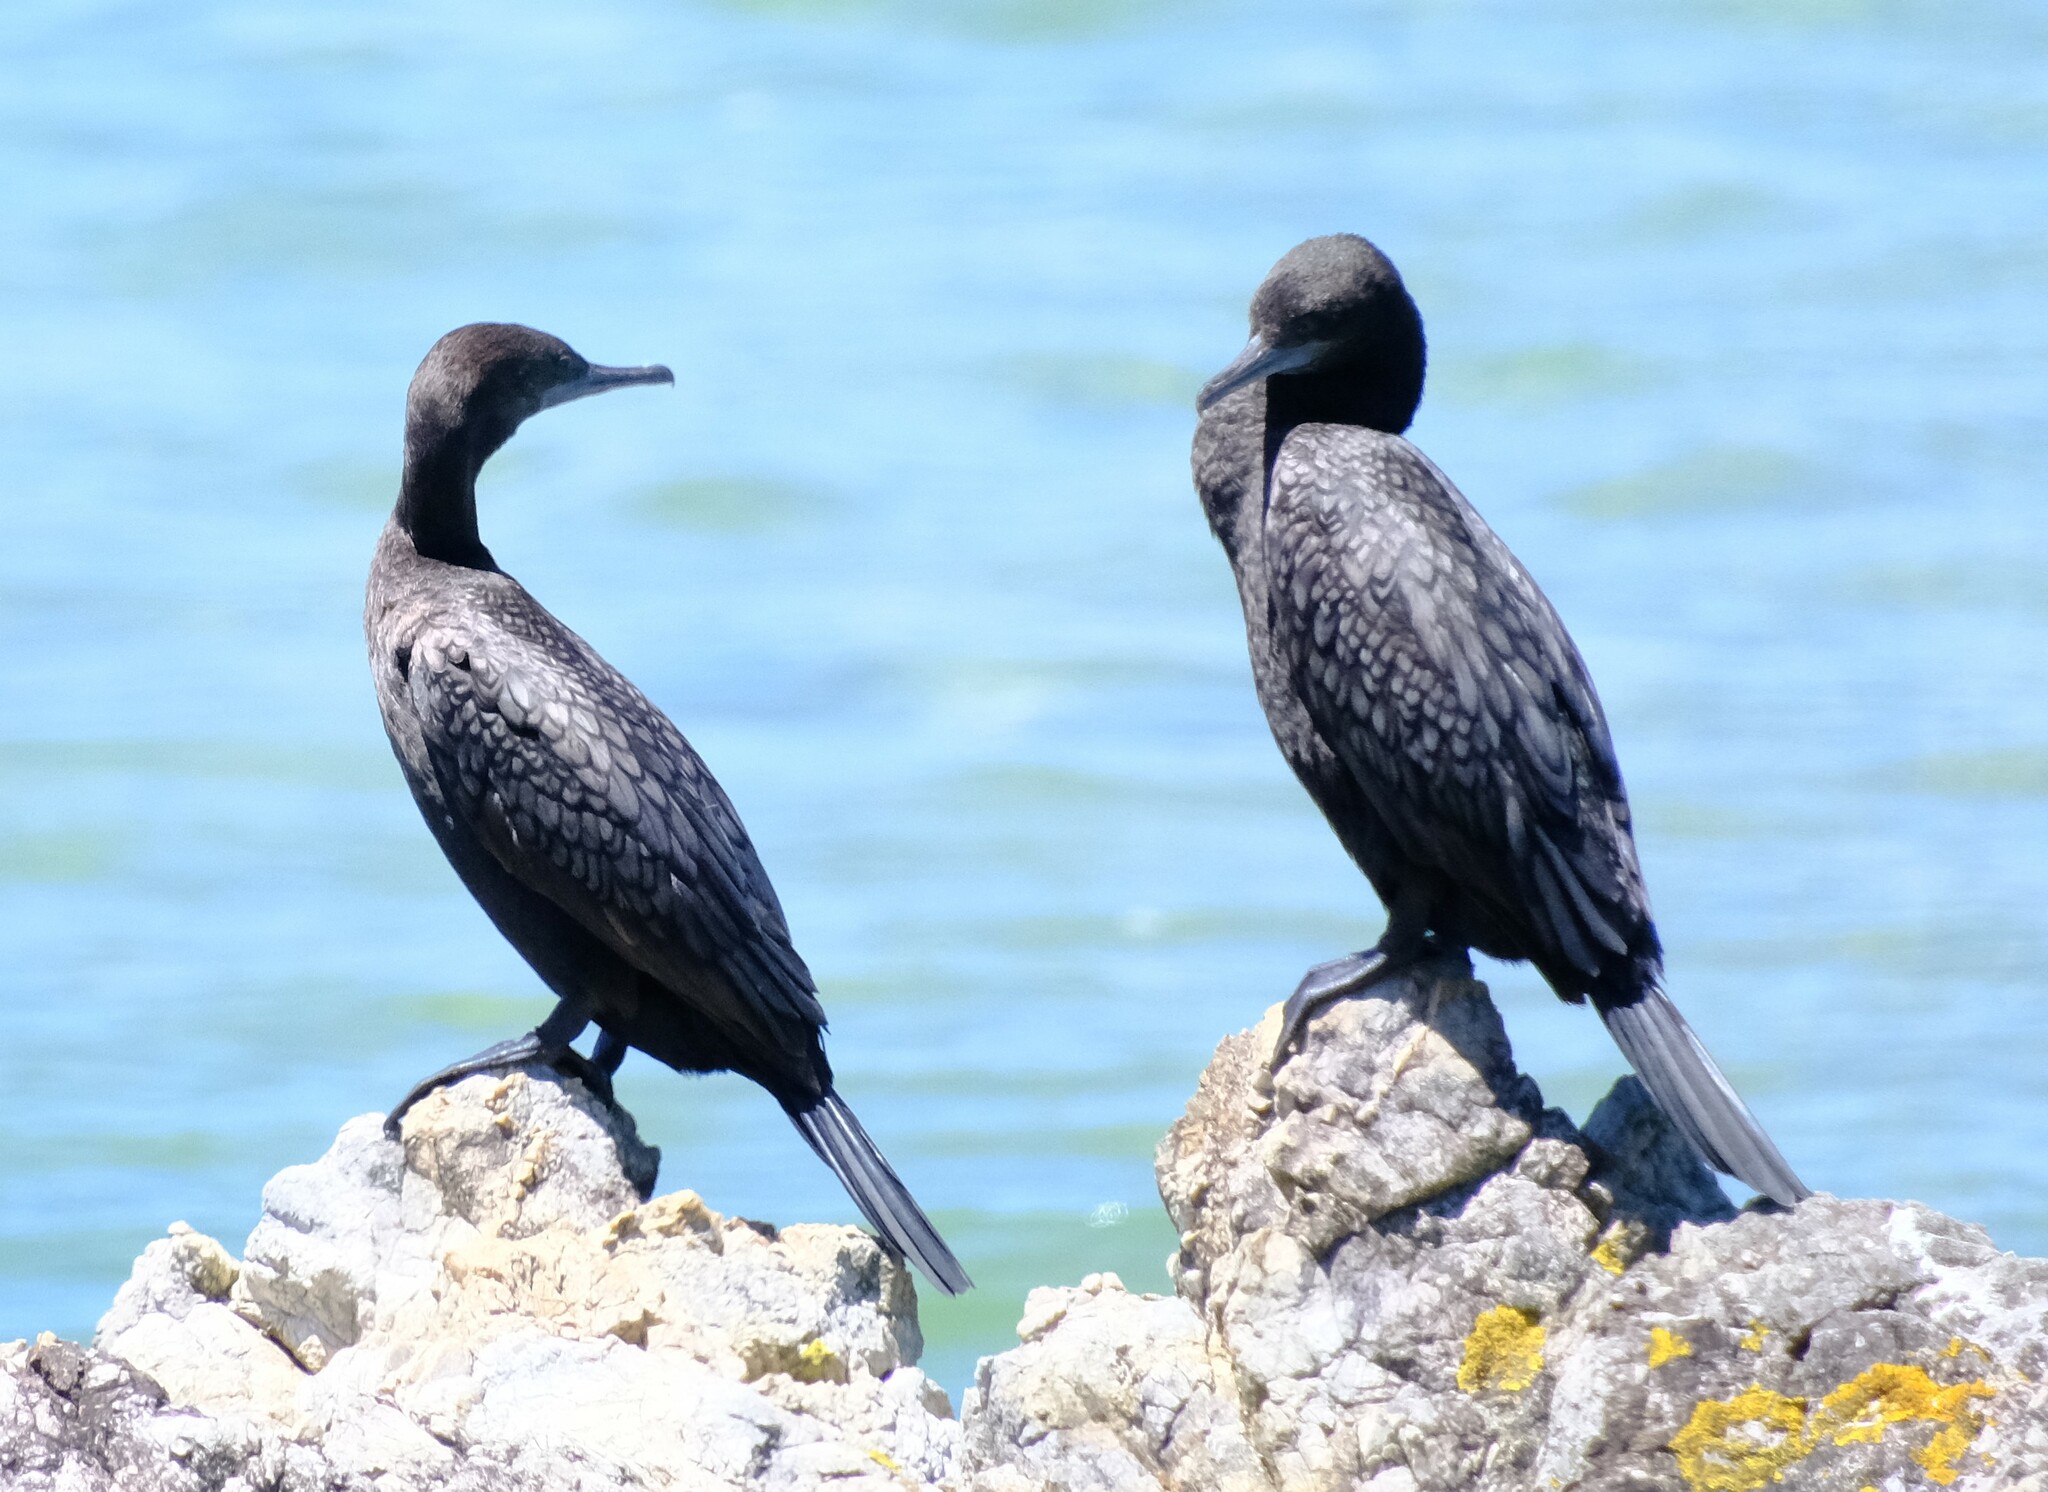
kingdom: Animalia
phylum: Chordata
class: Aves
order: Suliformes
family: Phalacrocoracidae
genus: Phalacrocorax
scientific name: Phalacrocorax sulcirostris
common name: Little black cormorant
